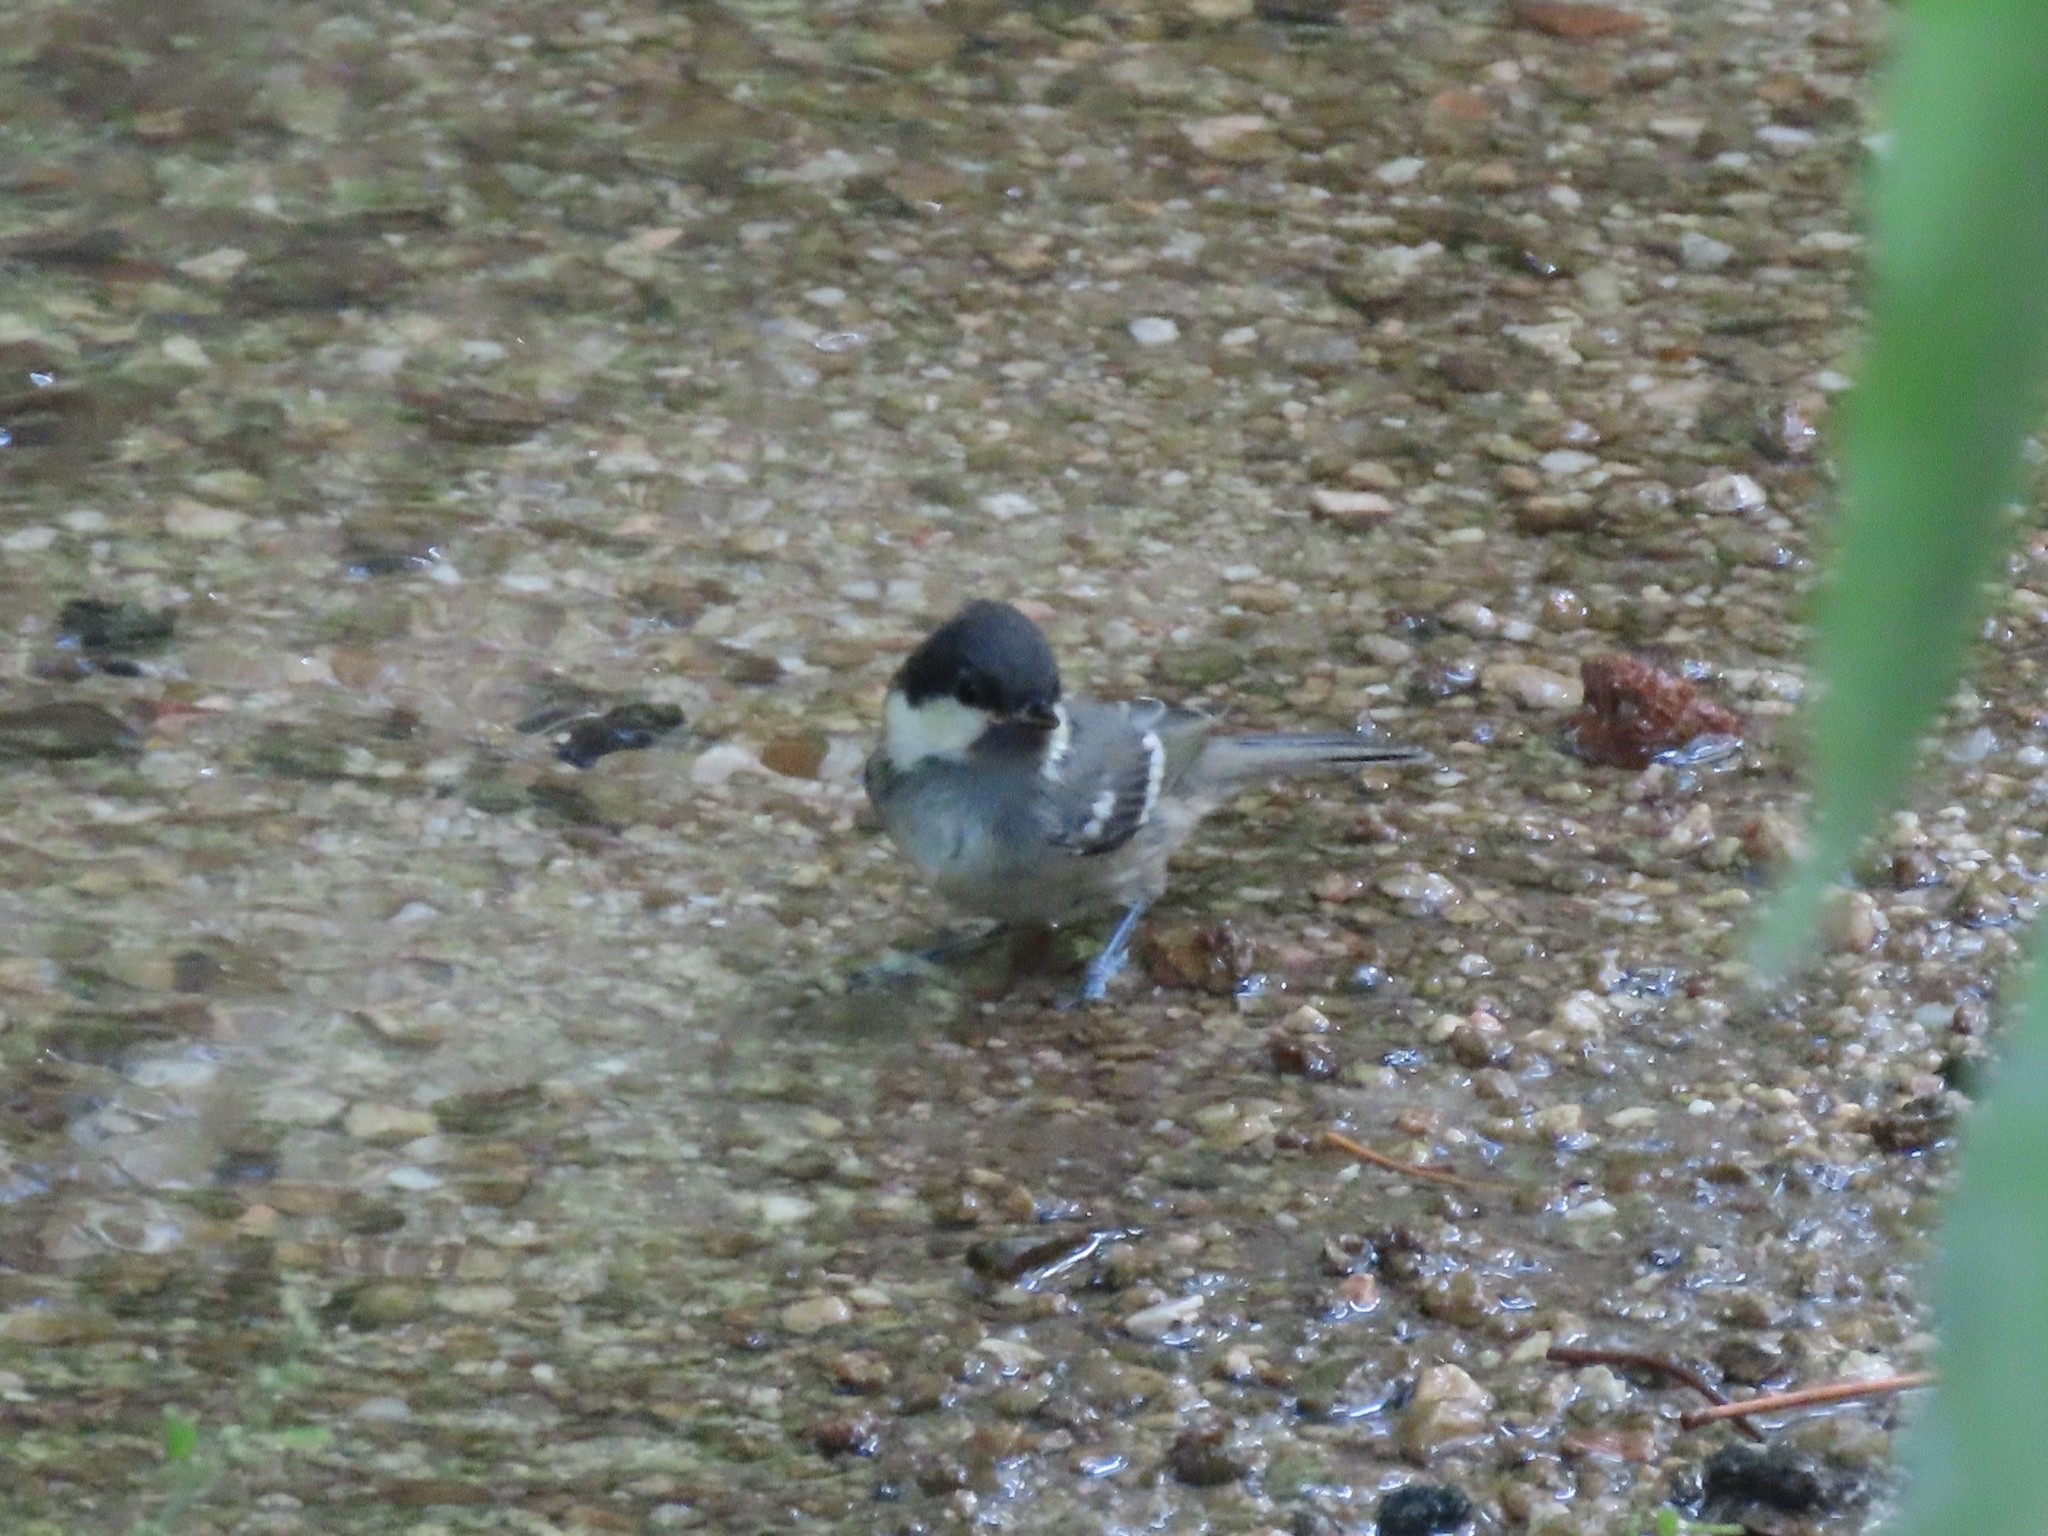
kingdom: Animalia
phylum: Chordata
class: Aves
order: Passeriformes
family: Paridae
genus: Periparus
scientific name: Periparus ater
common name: Coal tit
